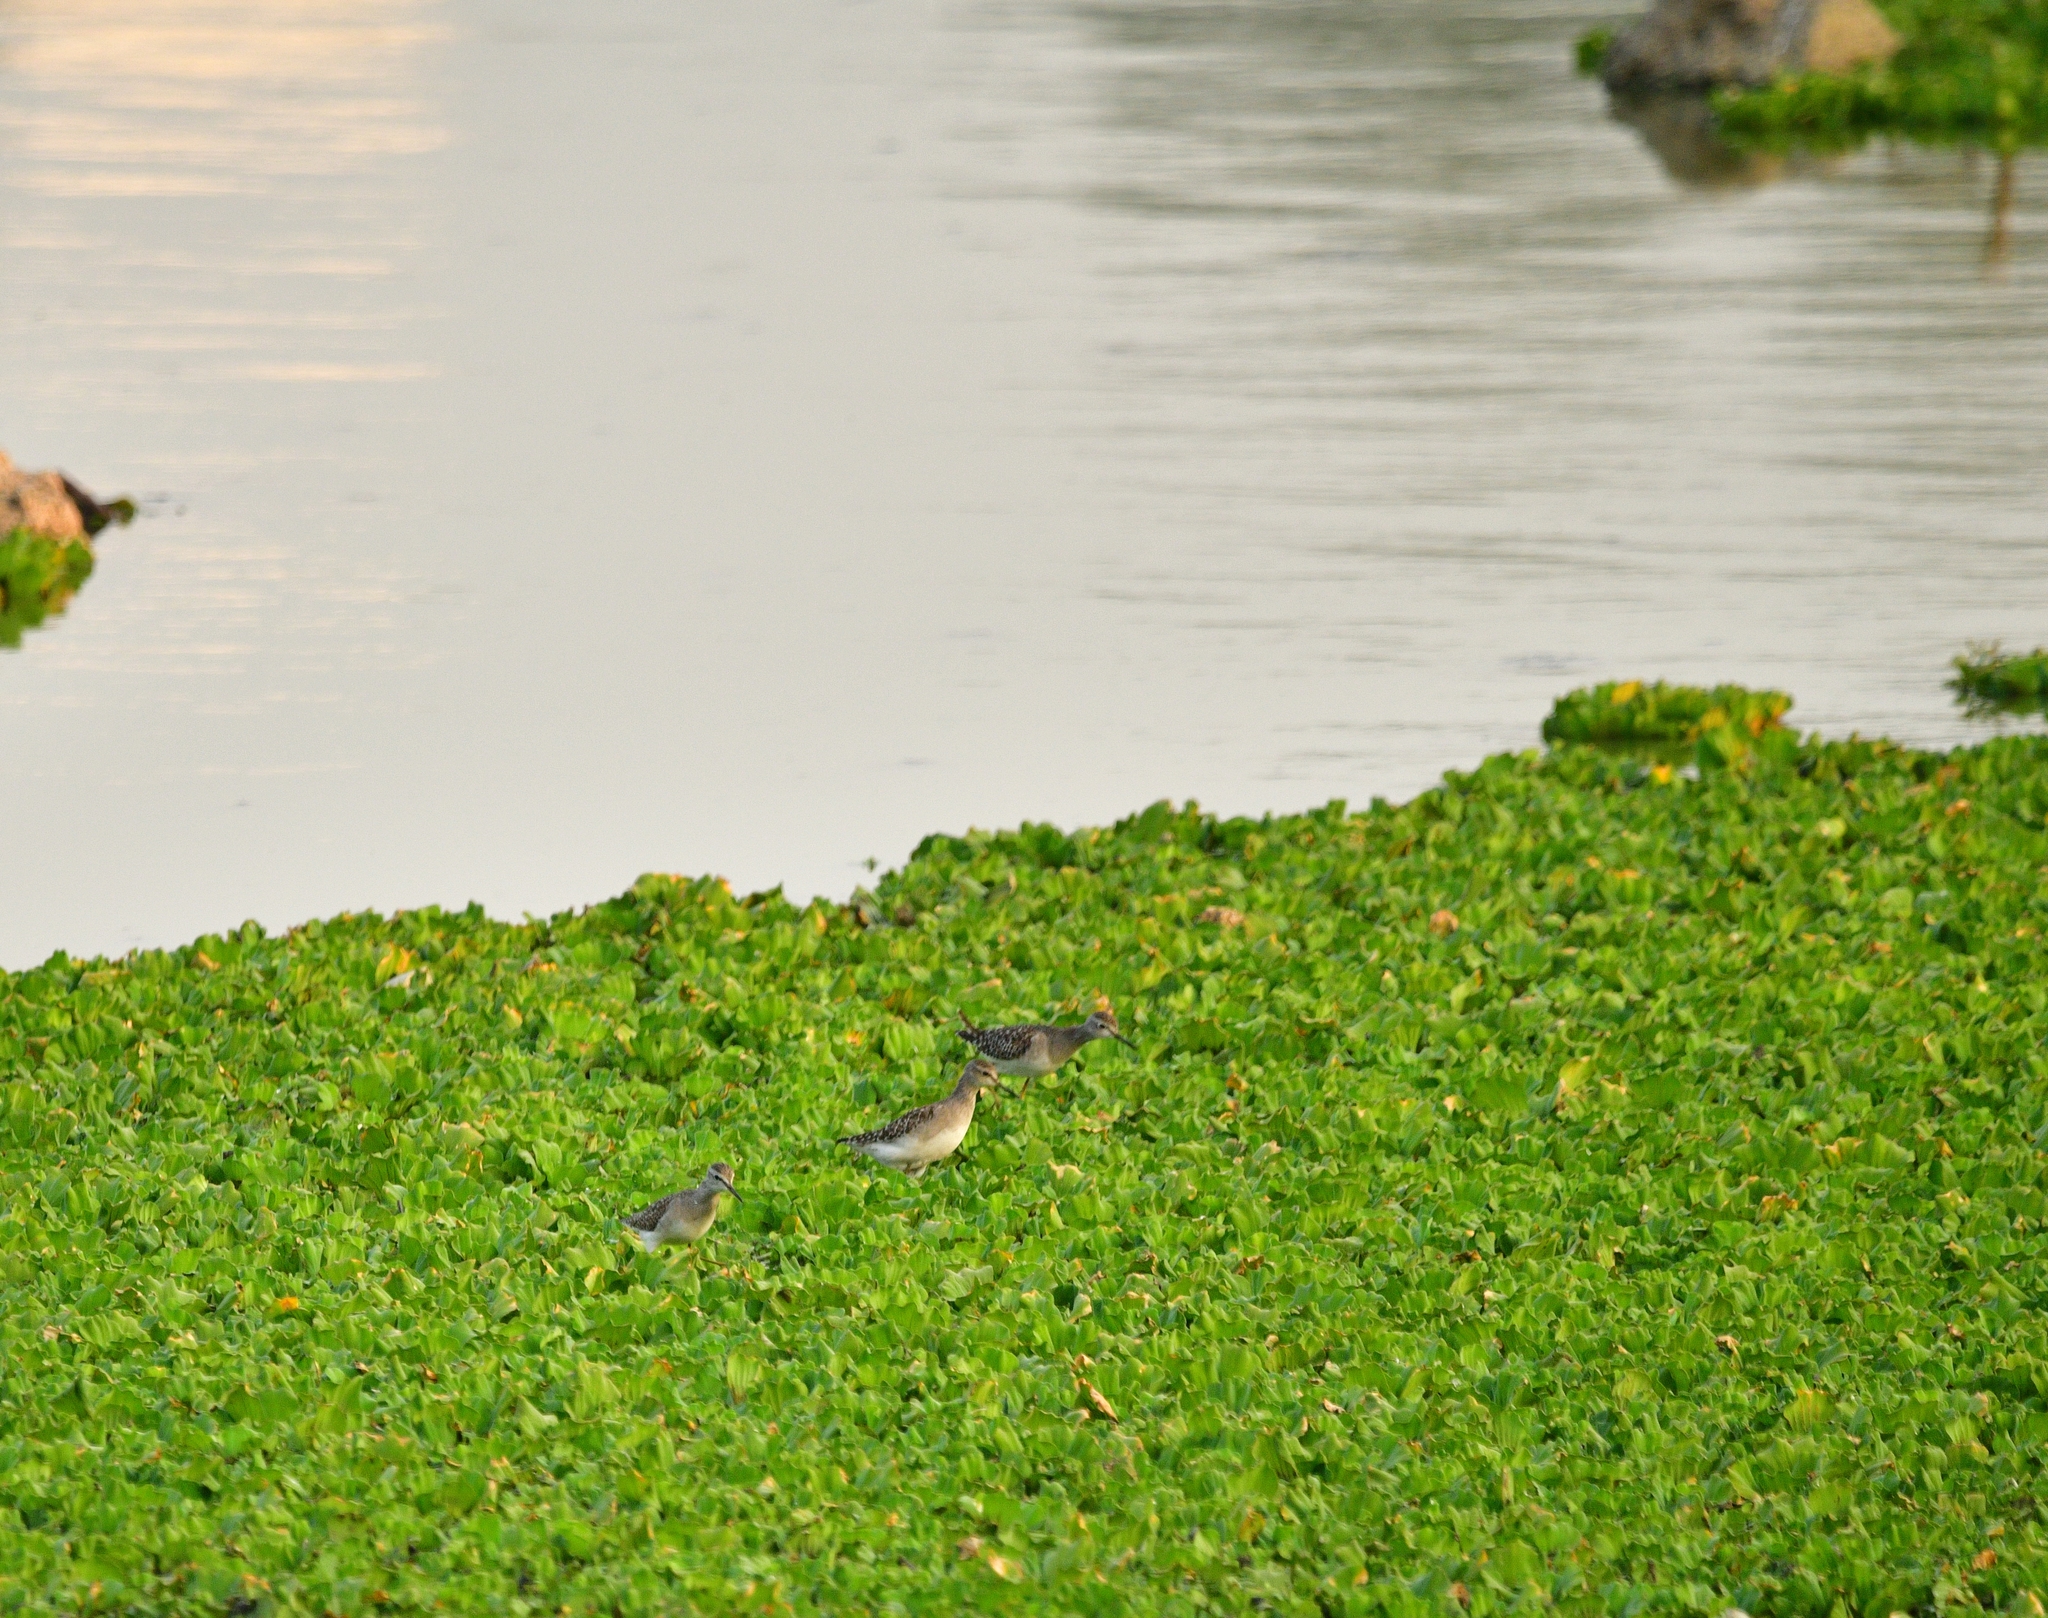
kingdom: Animalia
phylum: Chordata
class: Aves
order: Charadriiformes
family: Scolopacidae
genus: Tringa
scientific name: Tringa glareola
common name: Wood sandpiper
